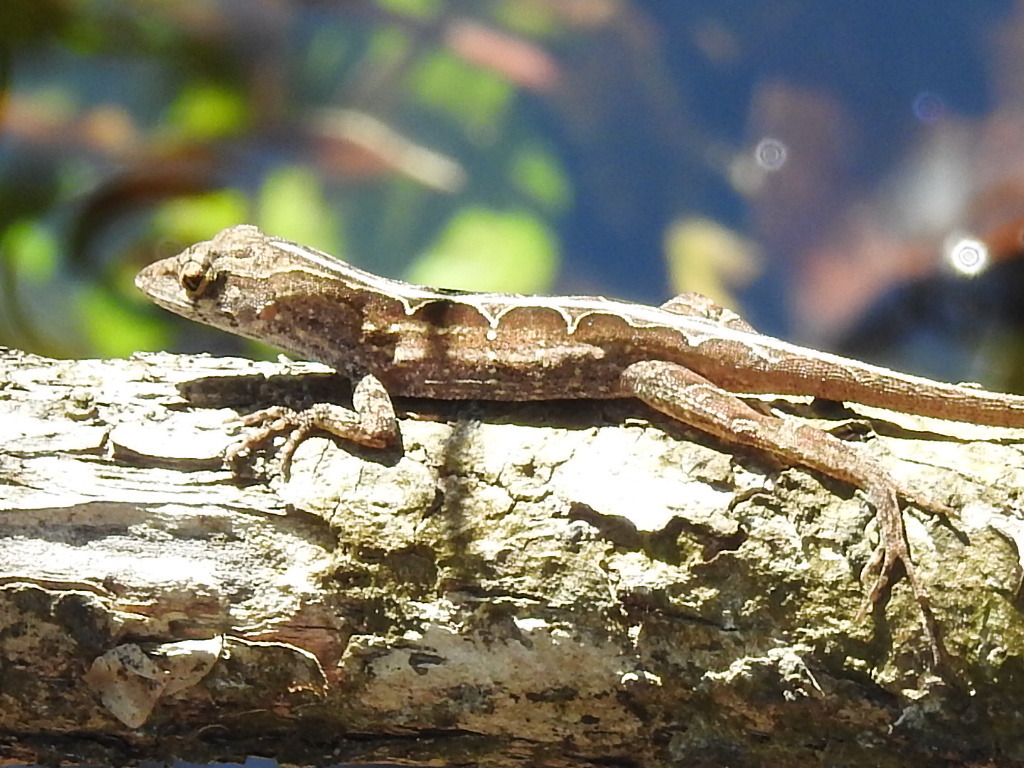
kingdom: Animalia
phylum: Chordata
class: Squamata
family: Dactyloidae
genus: Anolis
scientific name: Anolis sagrei
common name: Brown anole
